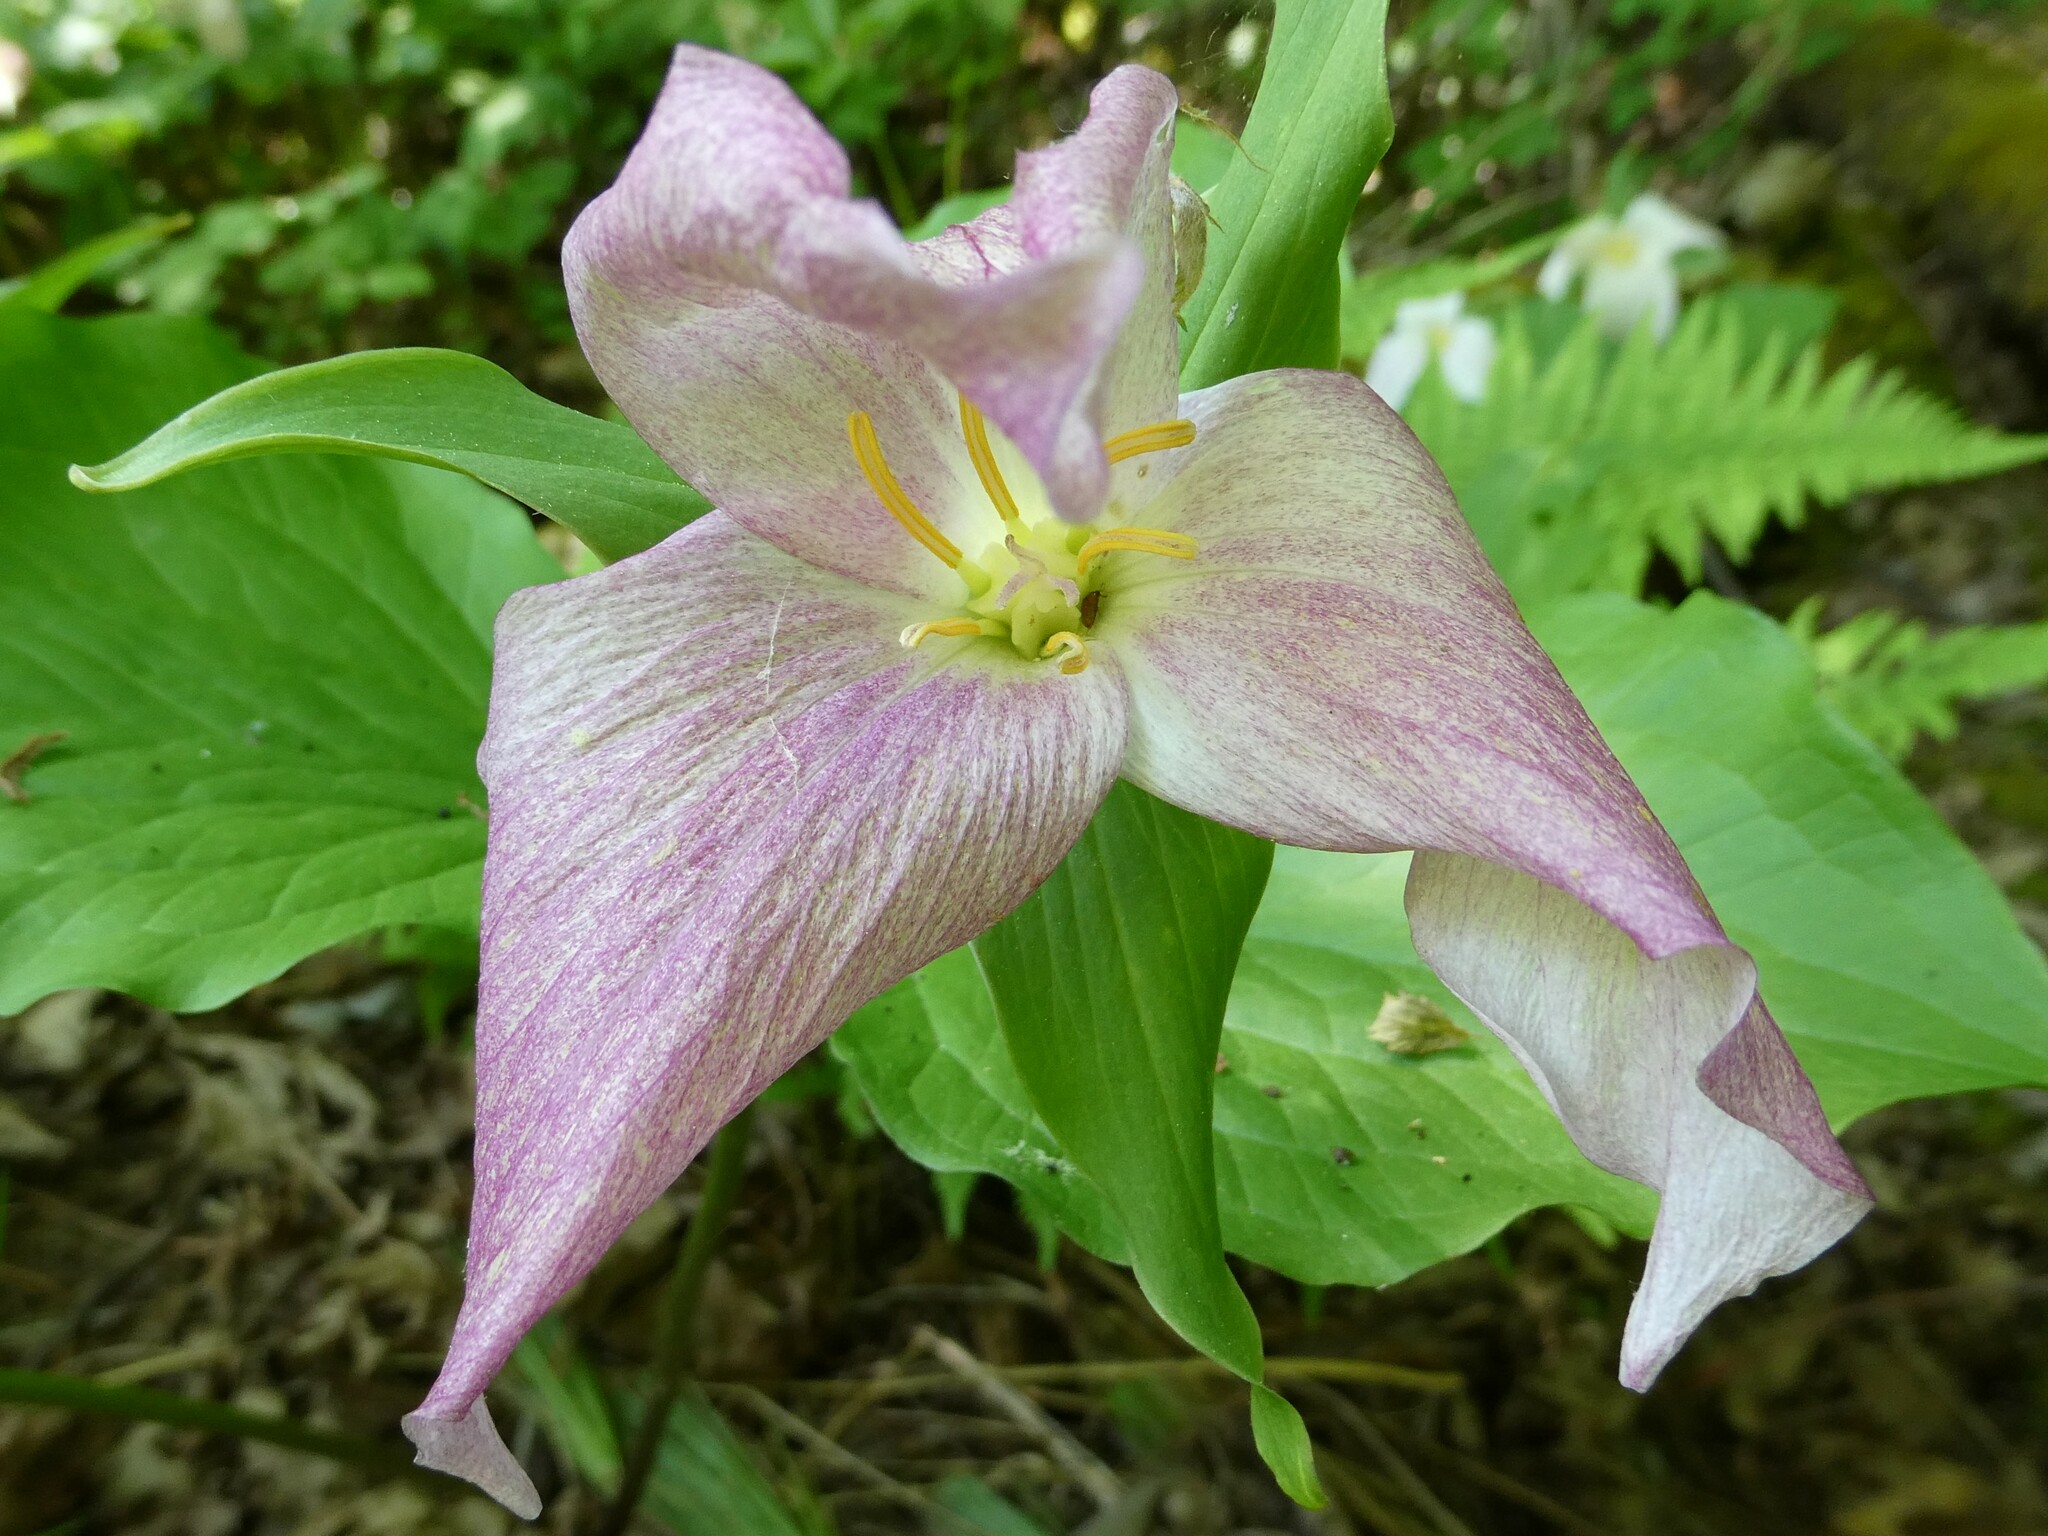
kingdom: Plantae
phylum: Tracheophyta
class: Liliopsida
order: Liliales
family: Melanthiaceae
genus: Trillium
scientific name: Trillium grandiflorum
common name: Great white trillium
